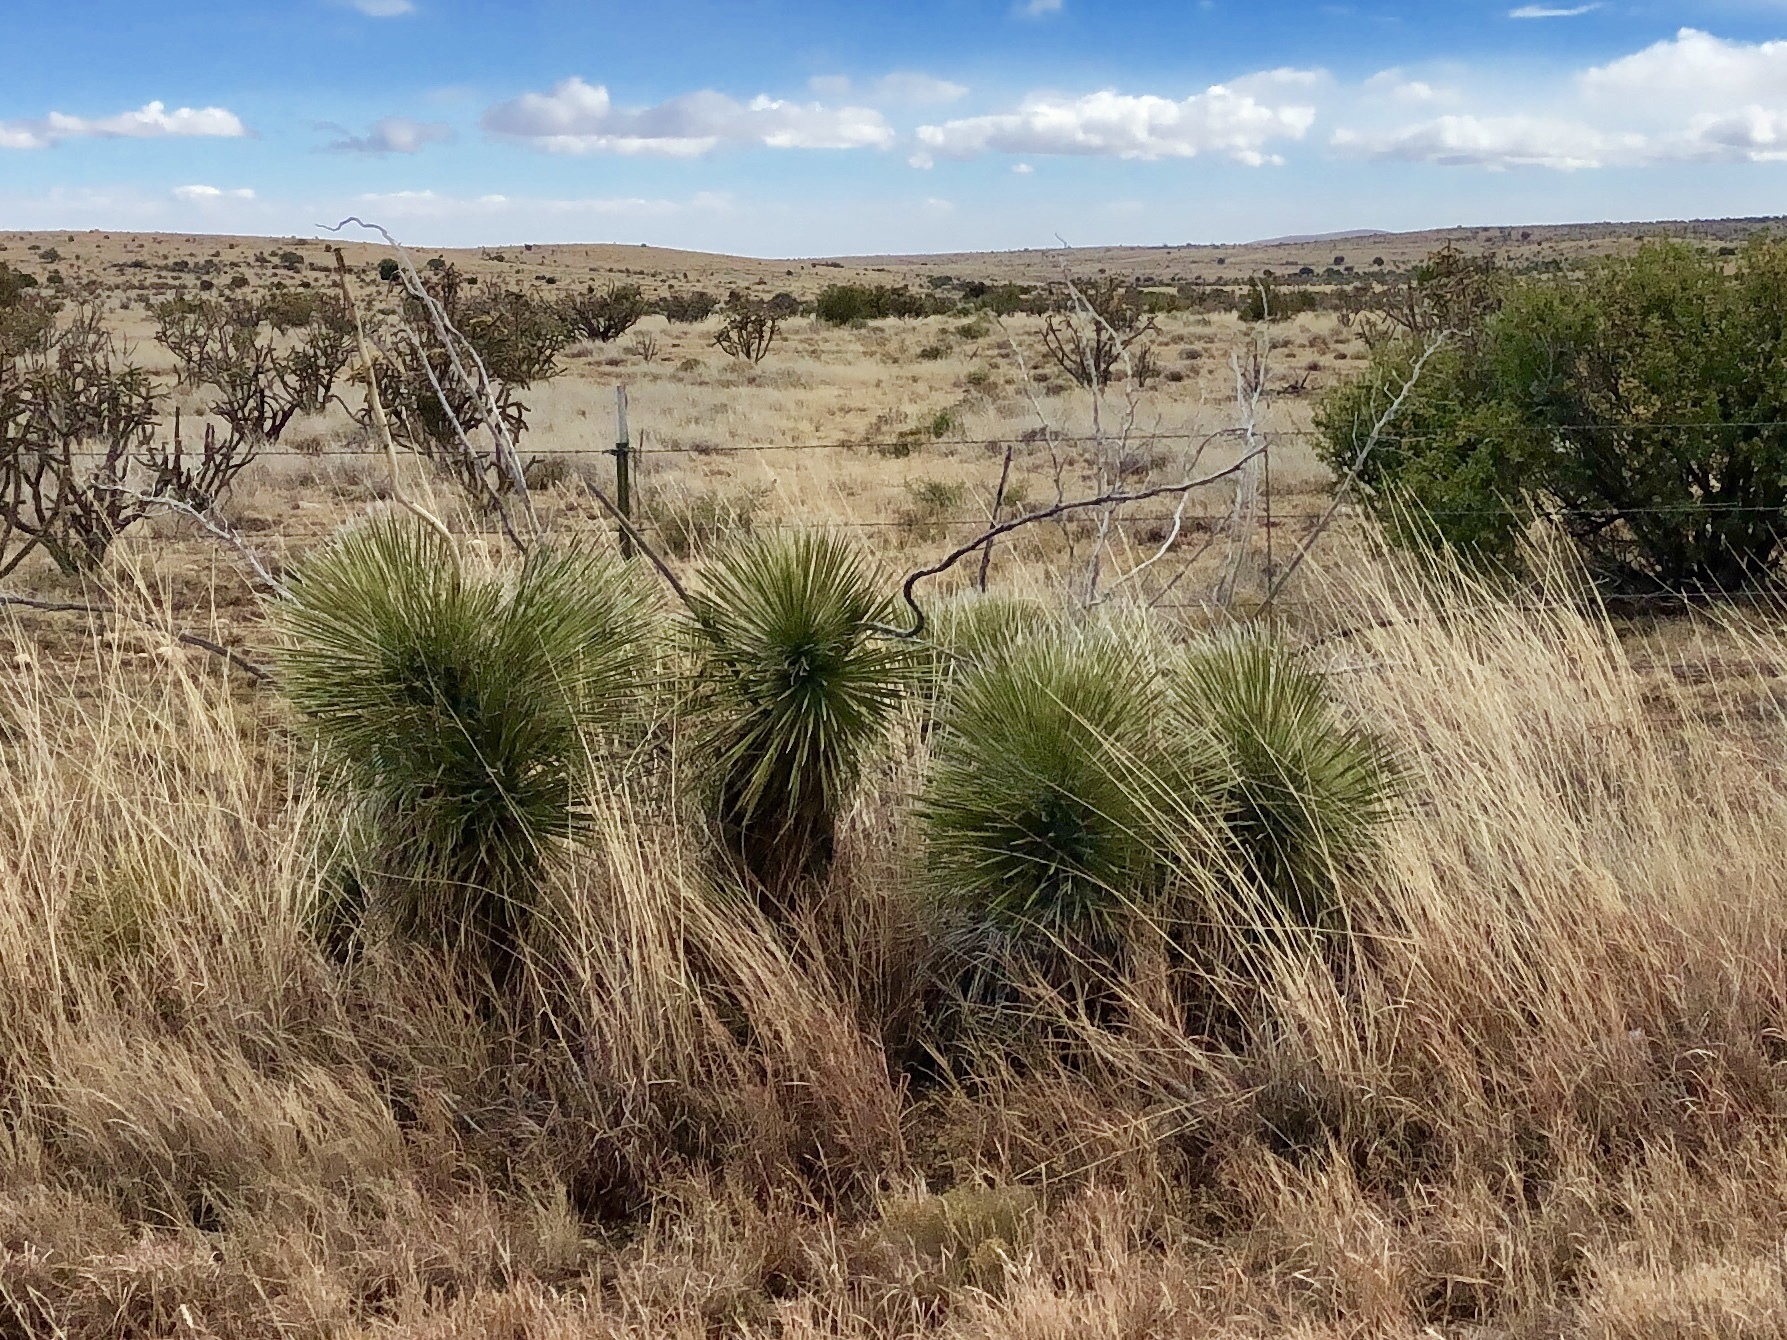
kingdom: Plantae
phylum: Tracheophyta
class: Liliopsida
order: Asparagales
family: Asparagaceae
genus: Yucca
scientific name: Yucca elata
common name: Palmella
